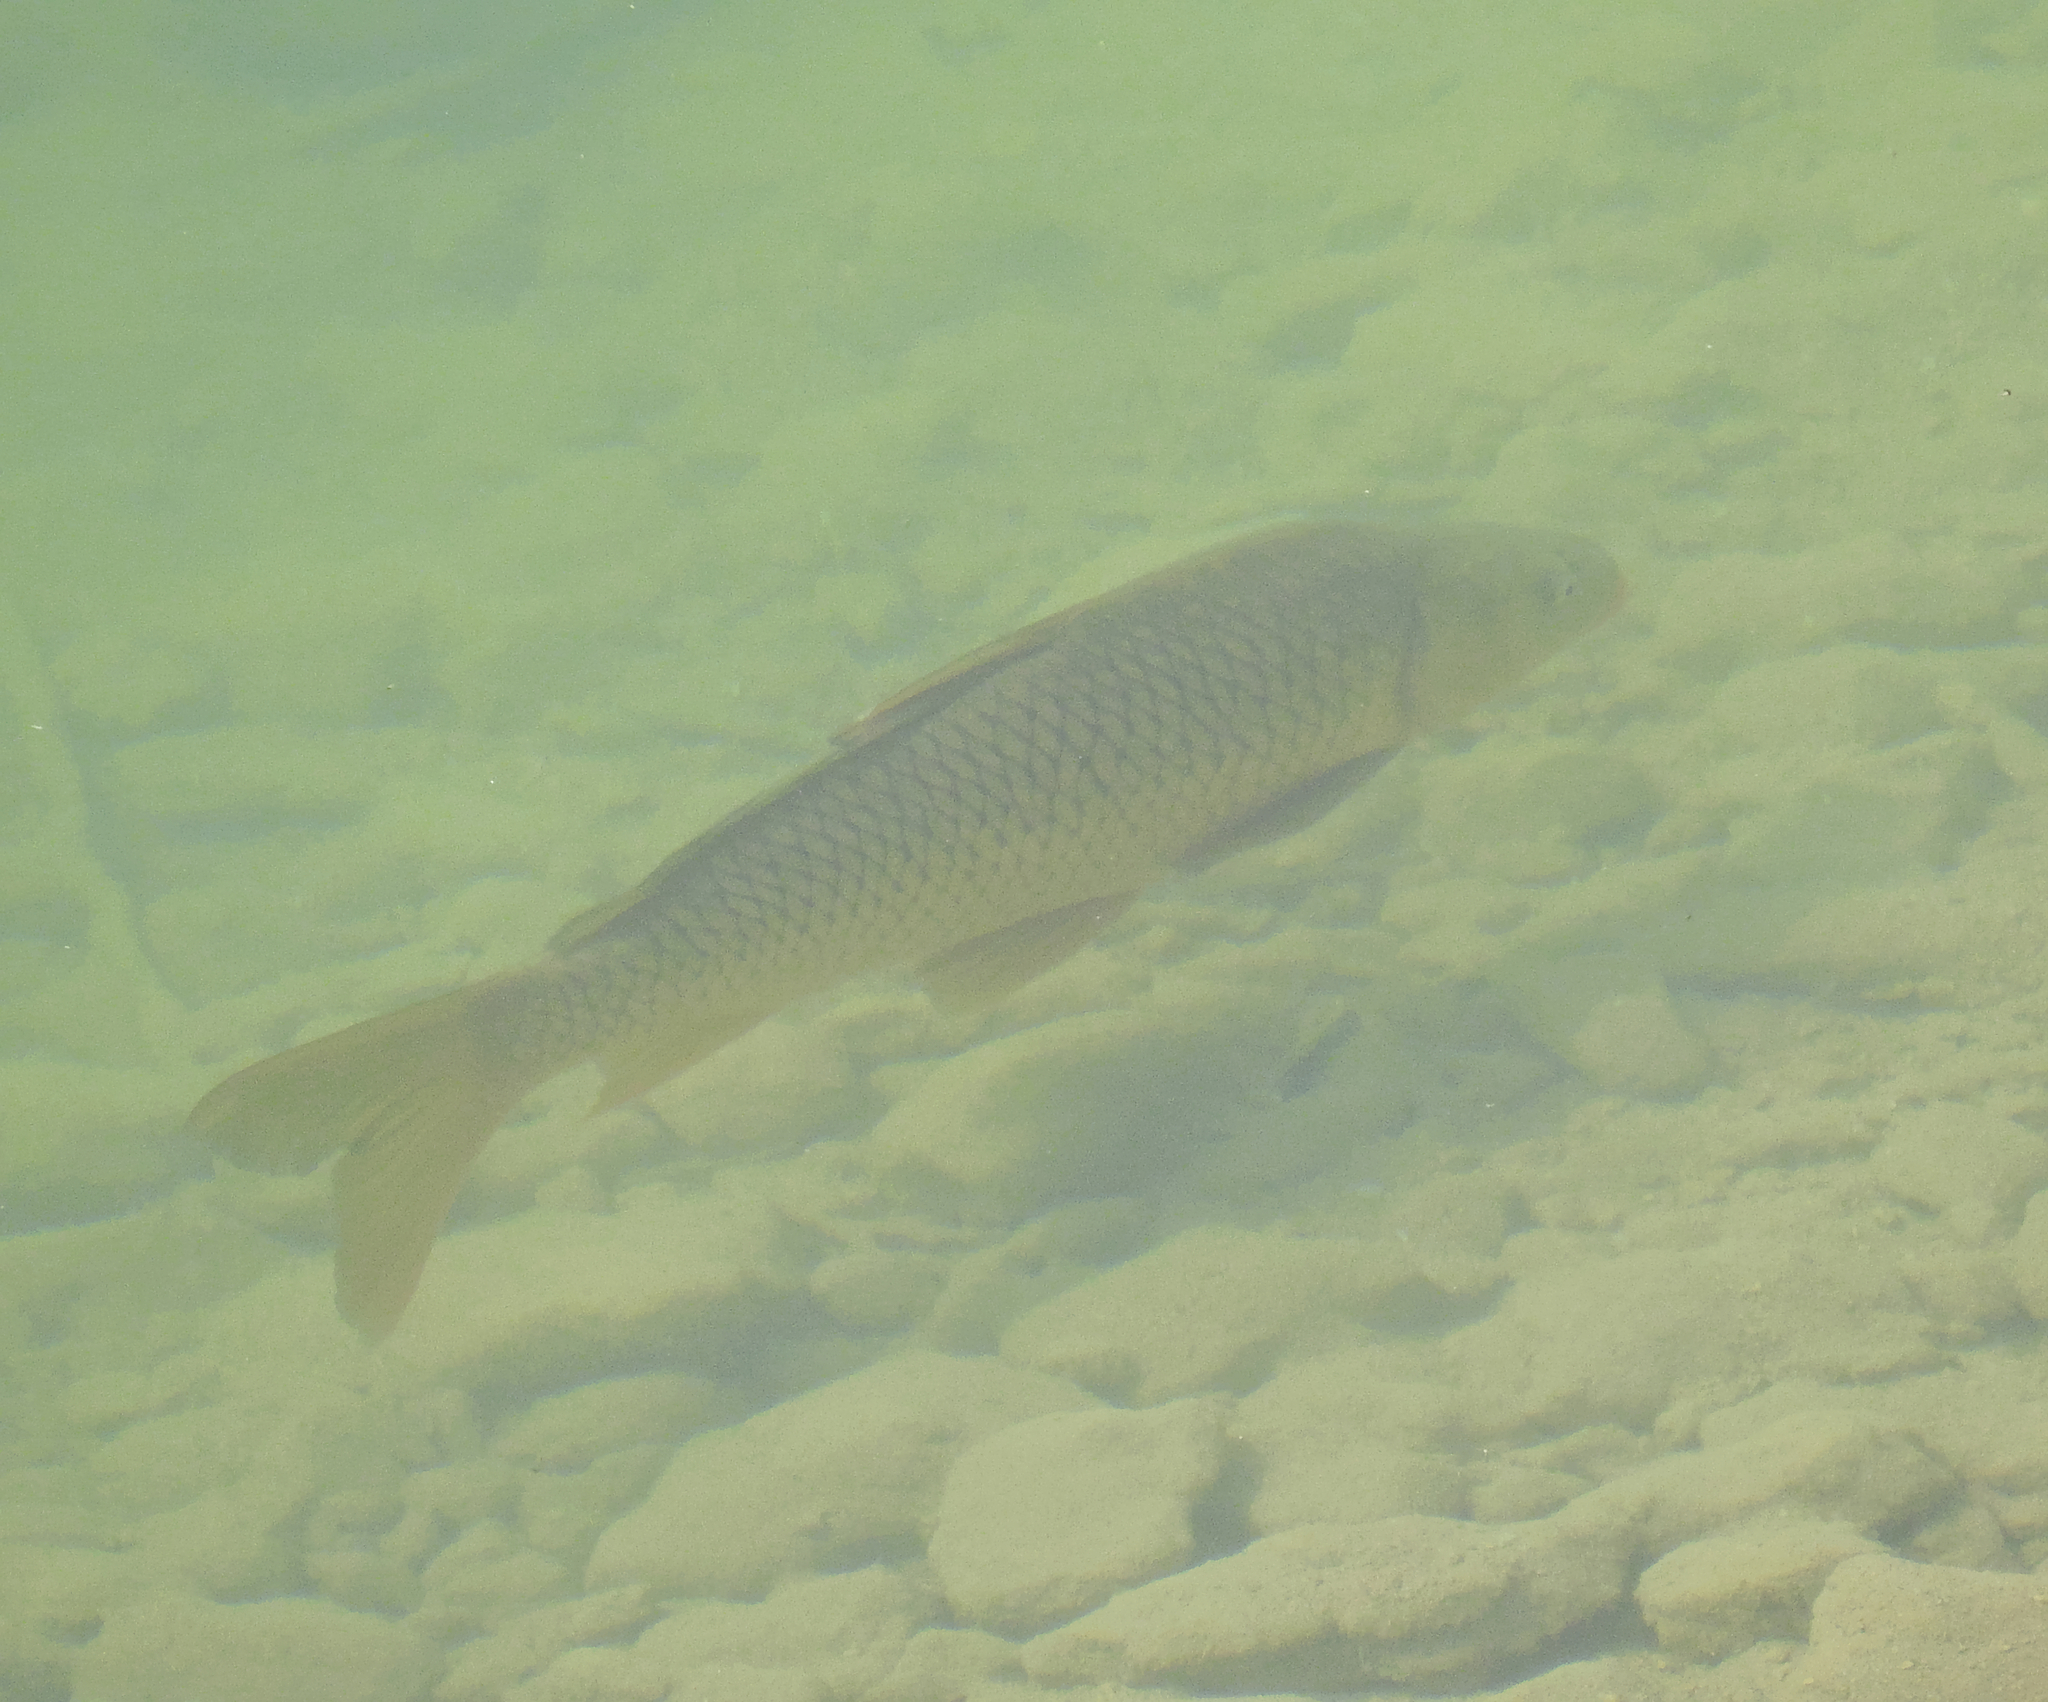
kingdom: Animalia
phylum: Chordata
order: Cypriniformes
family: Cyprinidae
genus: Cyprinus
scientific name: Cyprinus carpio
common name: Common carp
